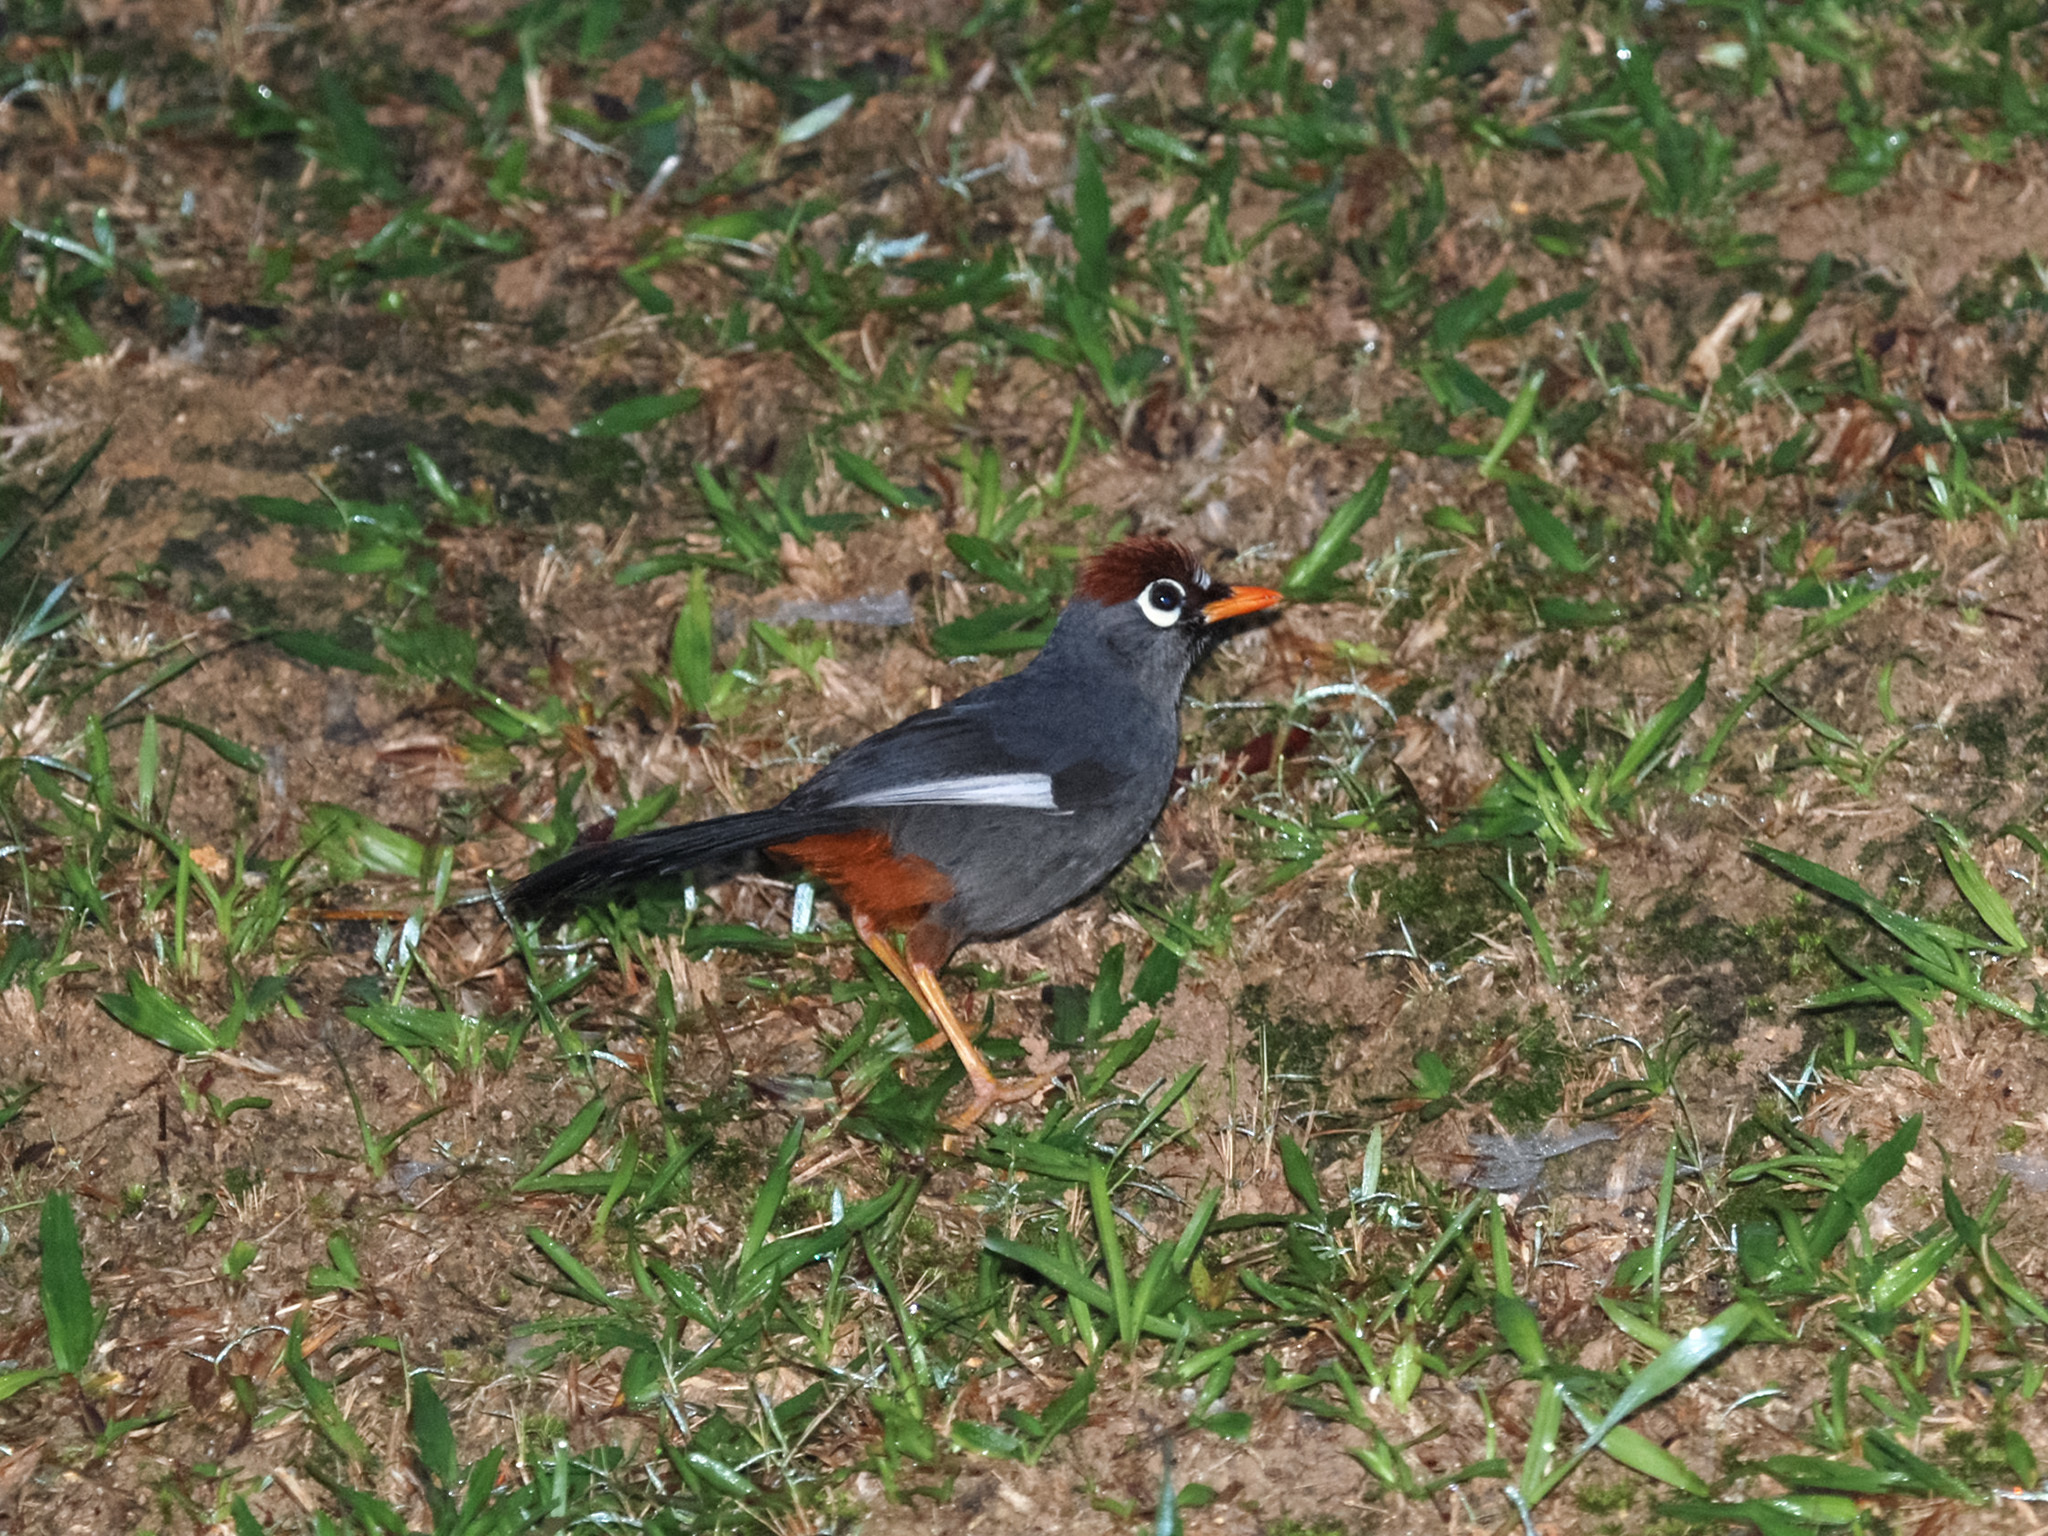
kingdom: Animalia
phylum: Chordata
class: Aves
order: Passeriformes
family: Leiothrichidae
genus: Garrulax
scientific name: Garrulax mitratus
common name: Chestnut-capped laughingthrush
